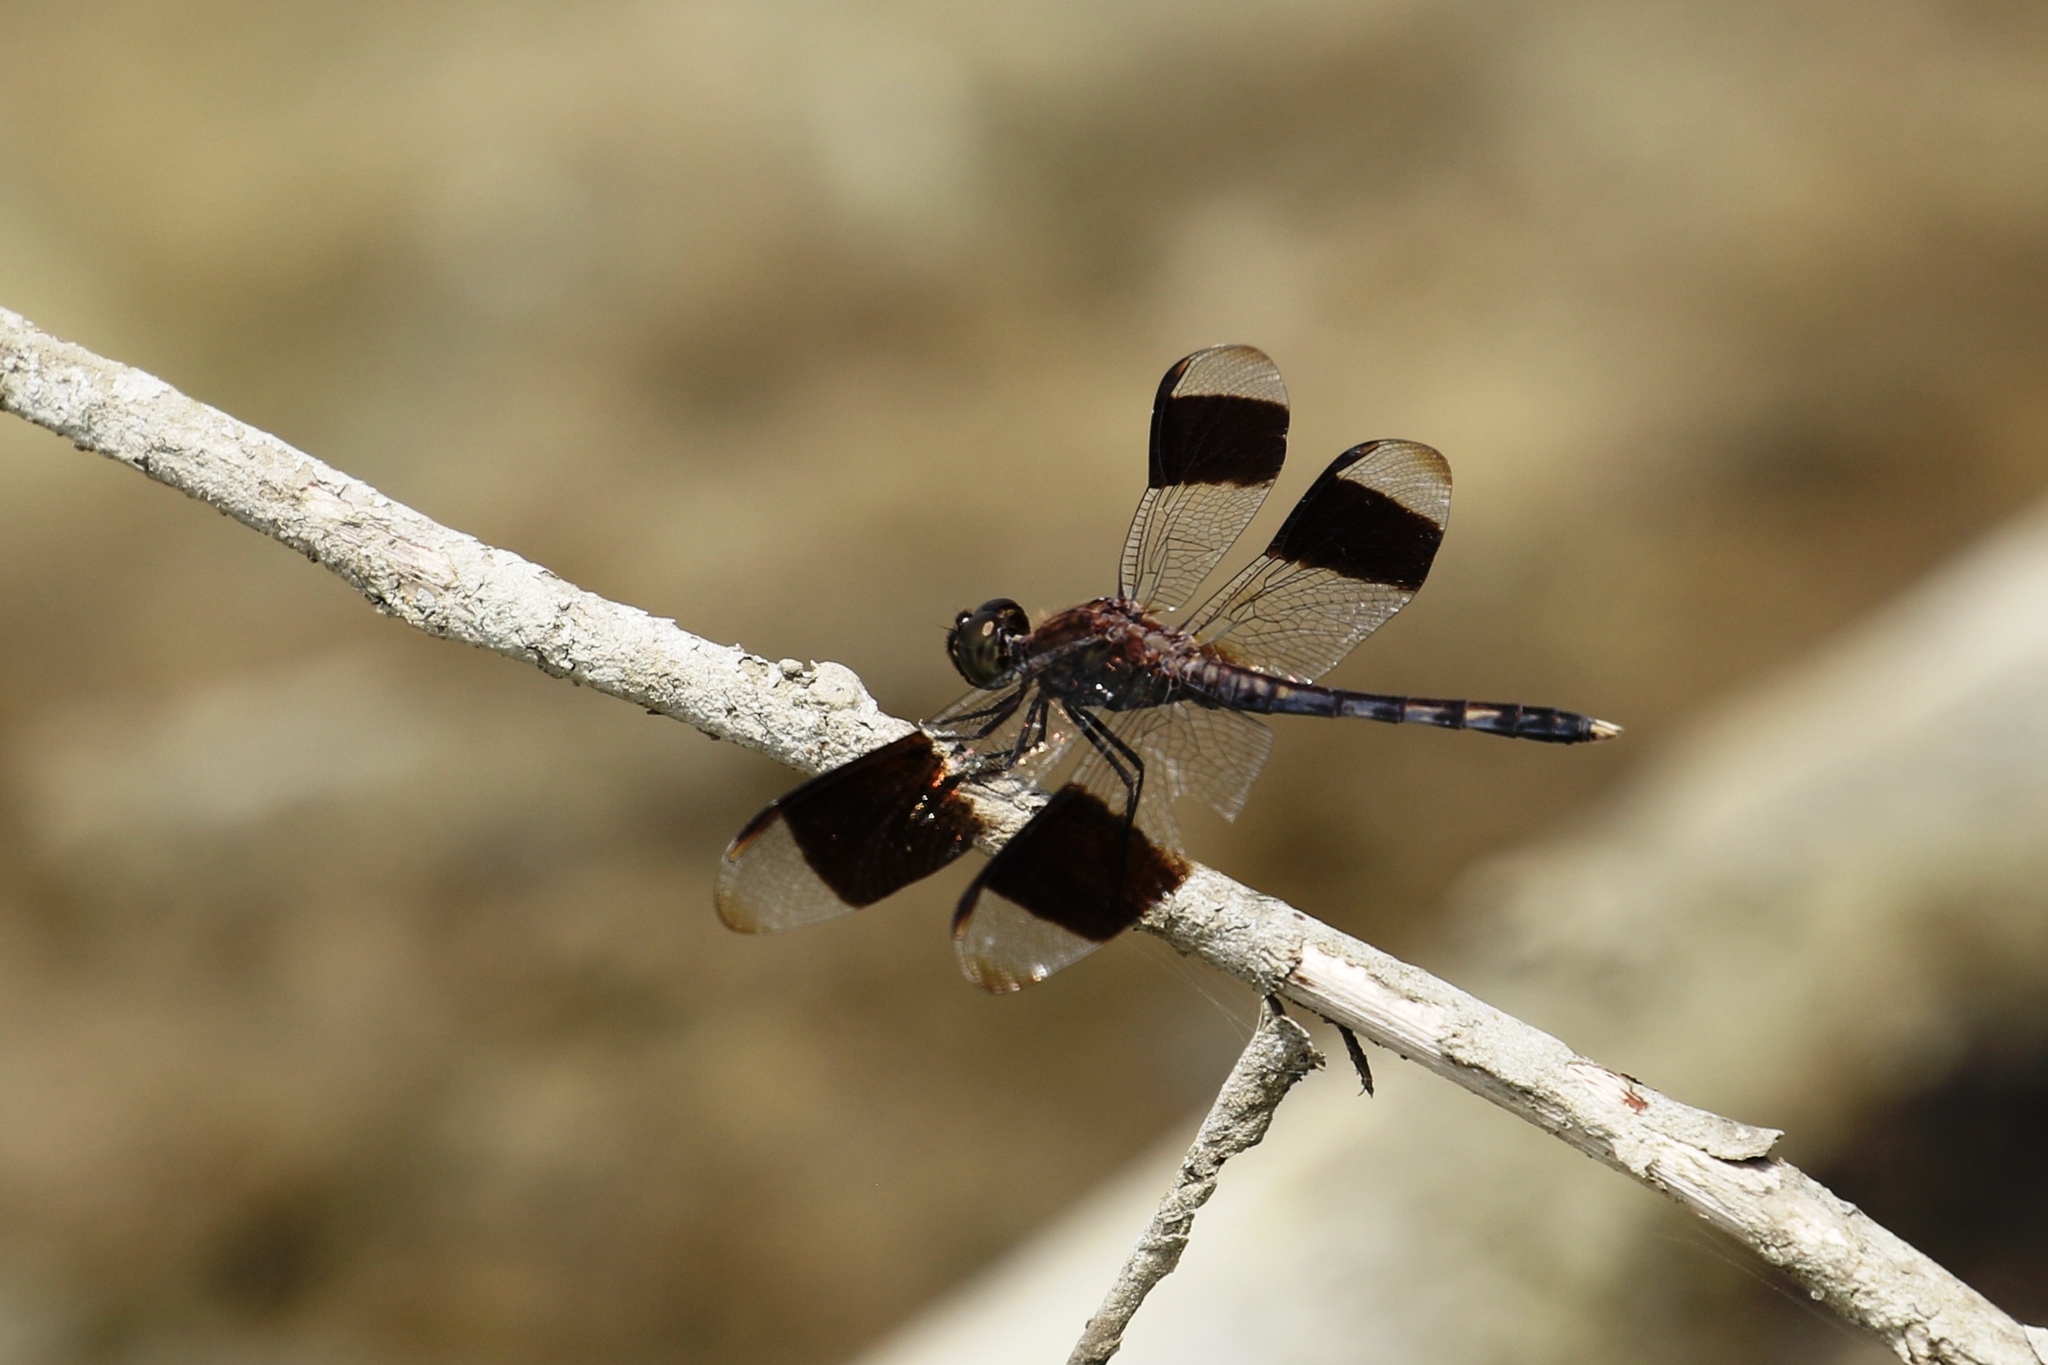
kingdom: Animalia
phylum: Arthropoda
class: Insecta
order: Odonata
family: Libellulidae
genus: Erythrodiplax
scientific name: Erythrodiplax umbrata
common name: Band-winged dragonlet
